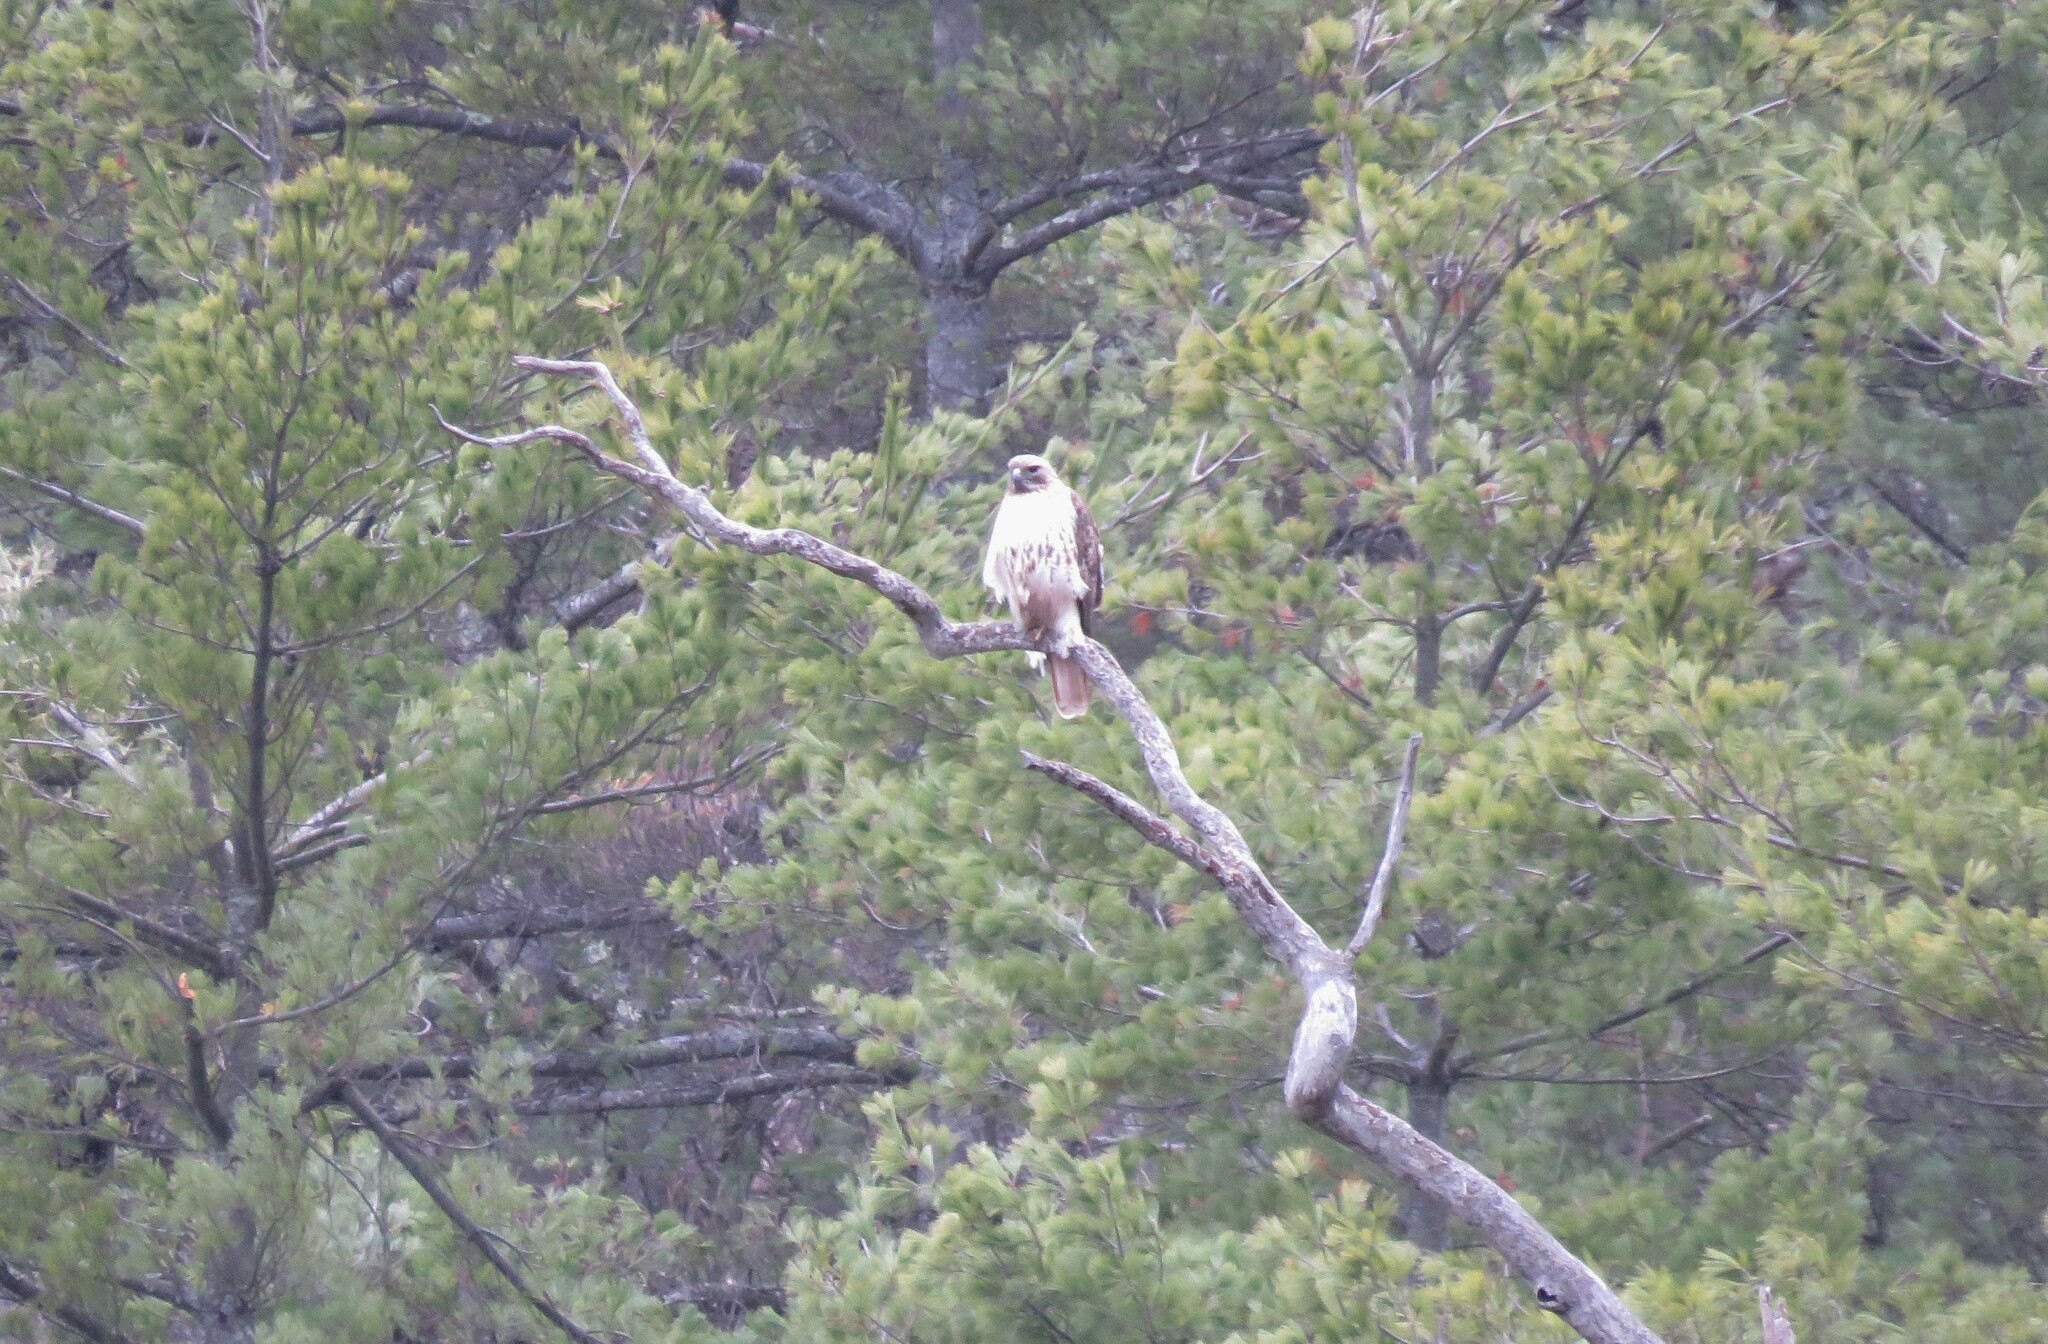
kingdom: Animalia
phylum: Chordata
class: Aves
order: Accipitriformes
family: Accipitridae
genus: Buteo
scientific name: Buteo jamaicensis
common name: Red-tailed hawk
